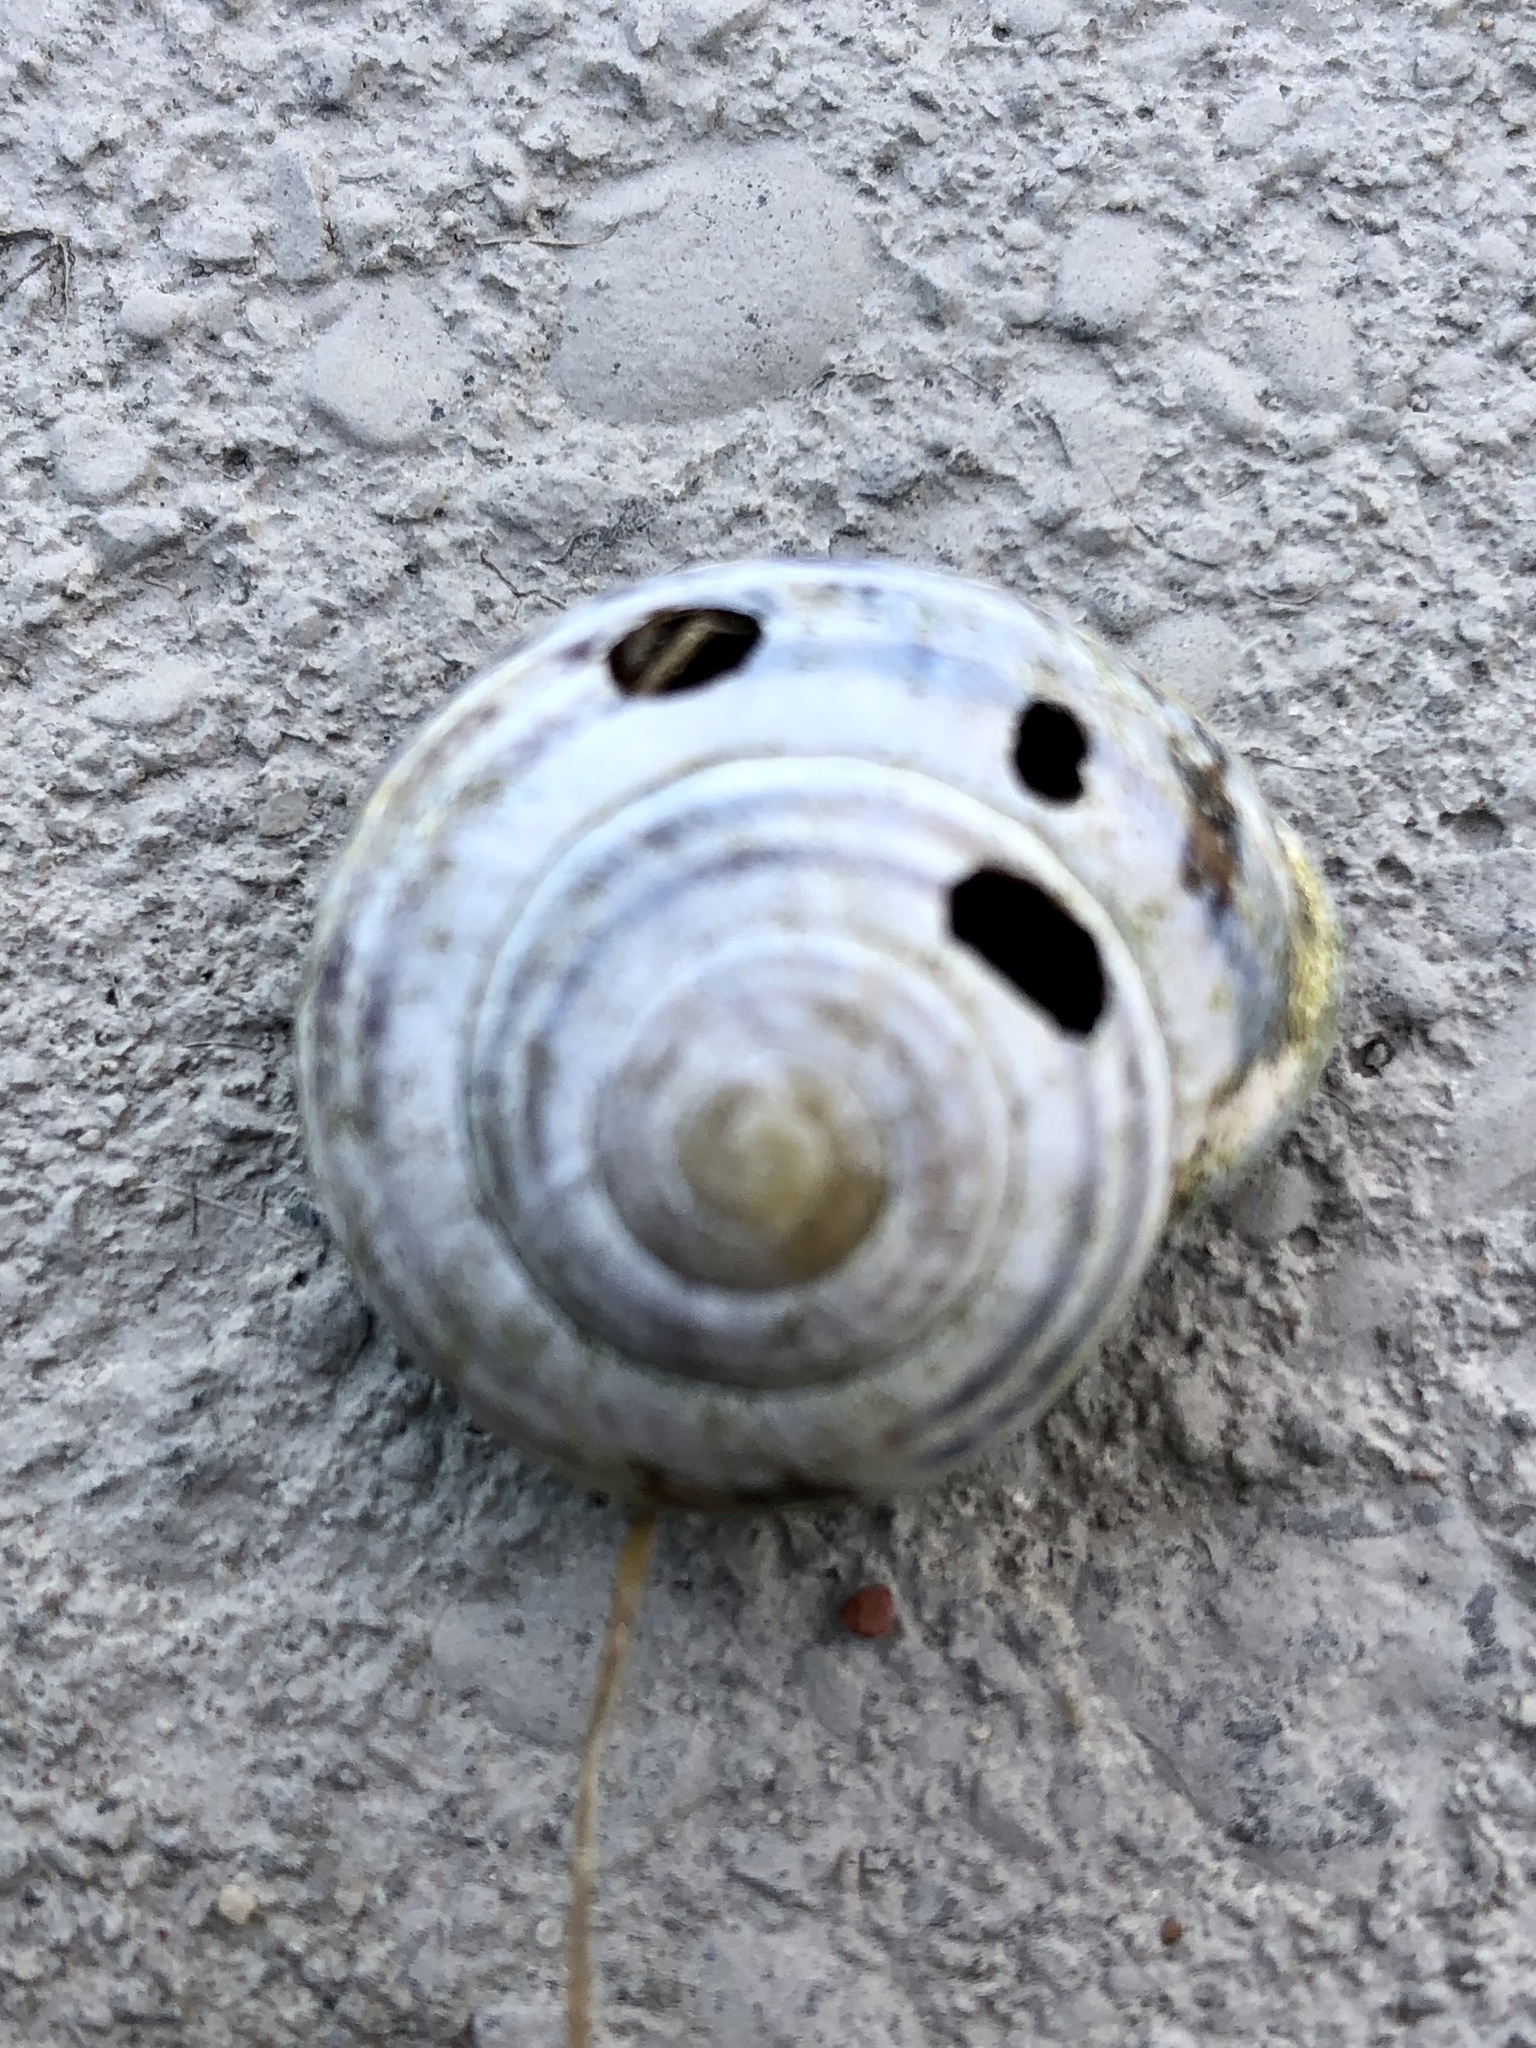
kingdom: Animalia
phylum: Mollusca
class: Gastropoda
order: Stylommatophora
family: Helicidae
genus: Cepaea
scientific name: Cepaea nemoralis
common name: Grovesnail
